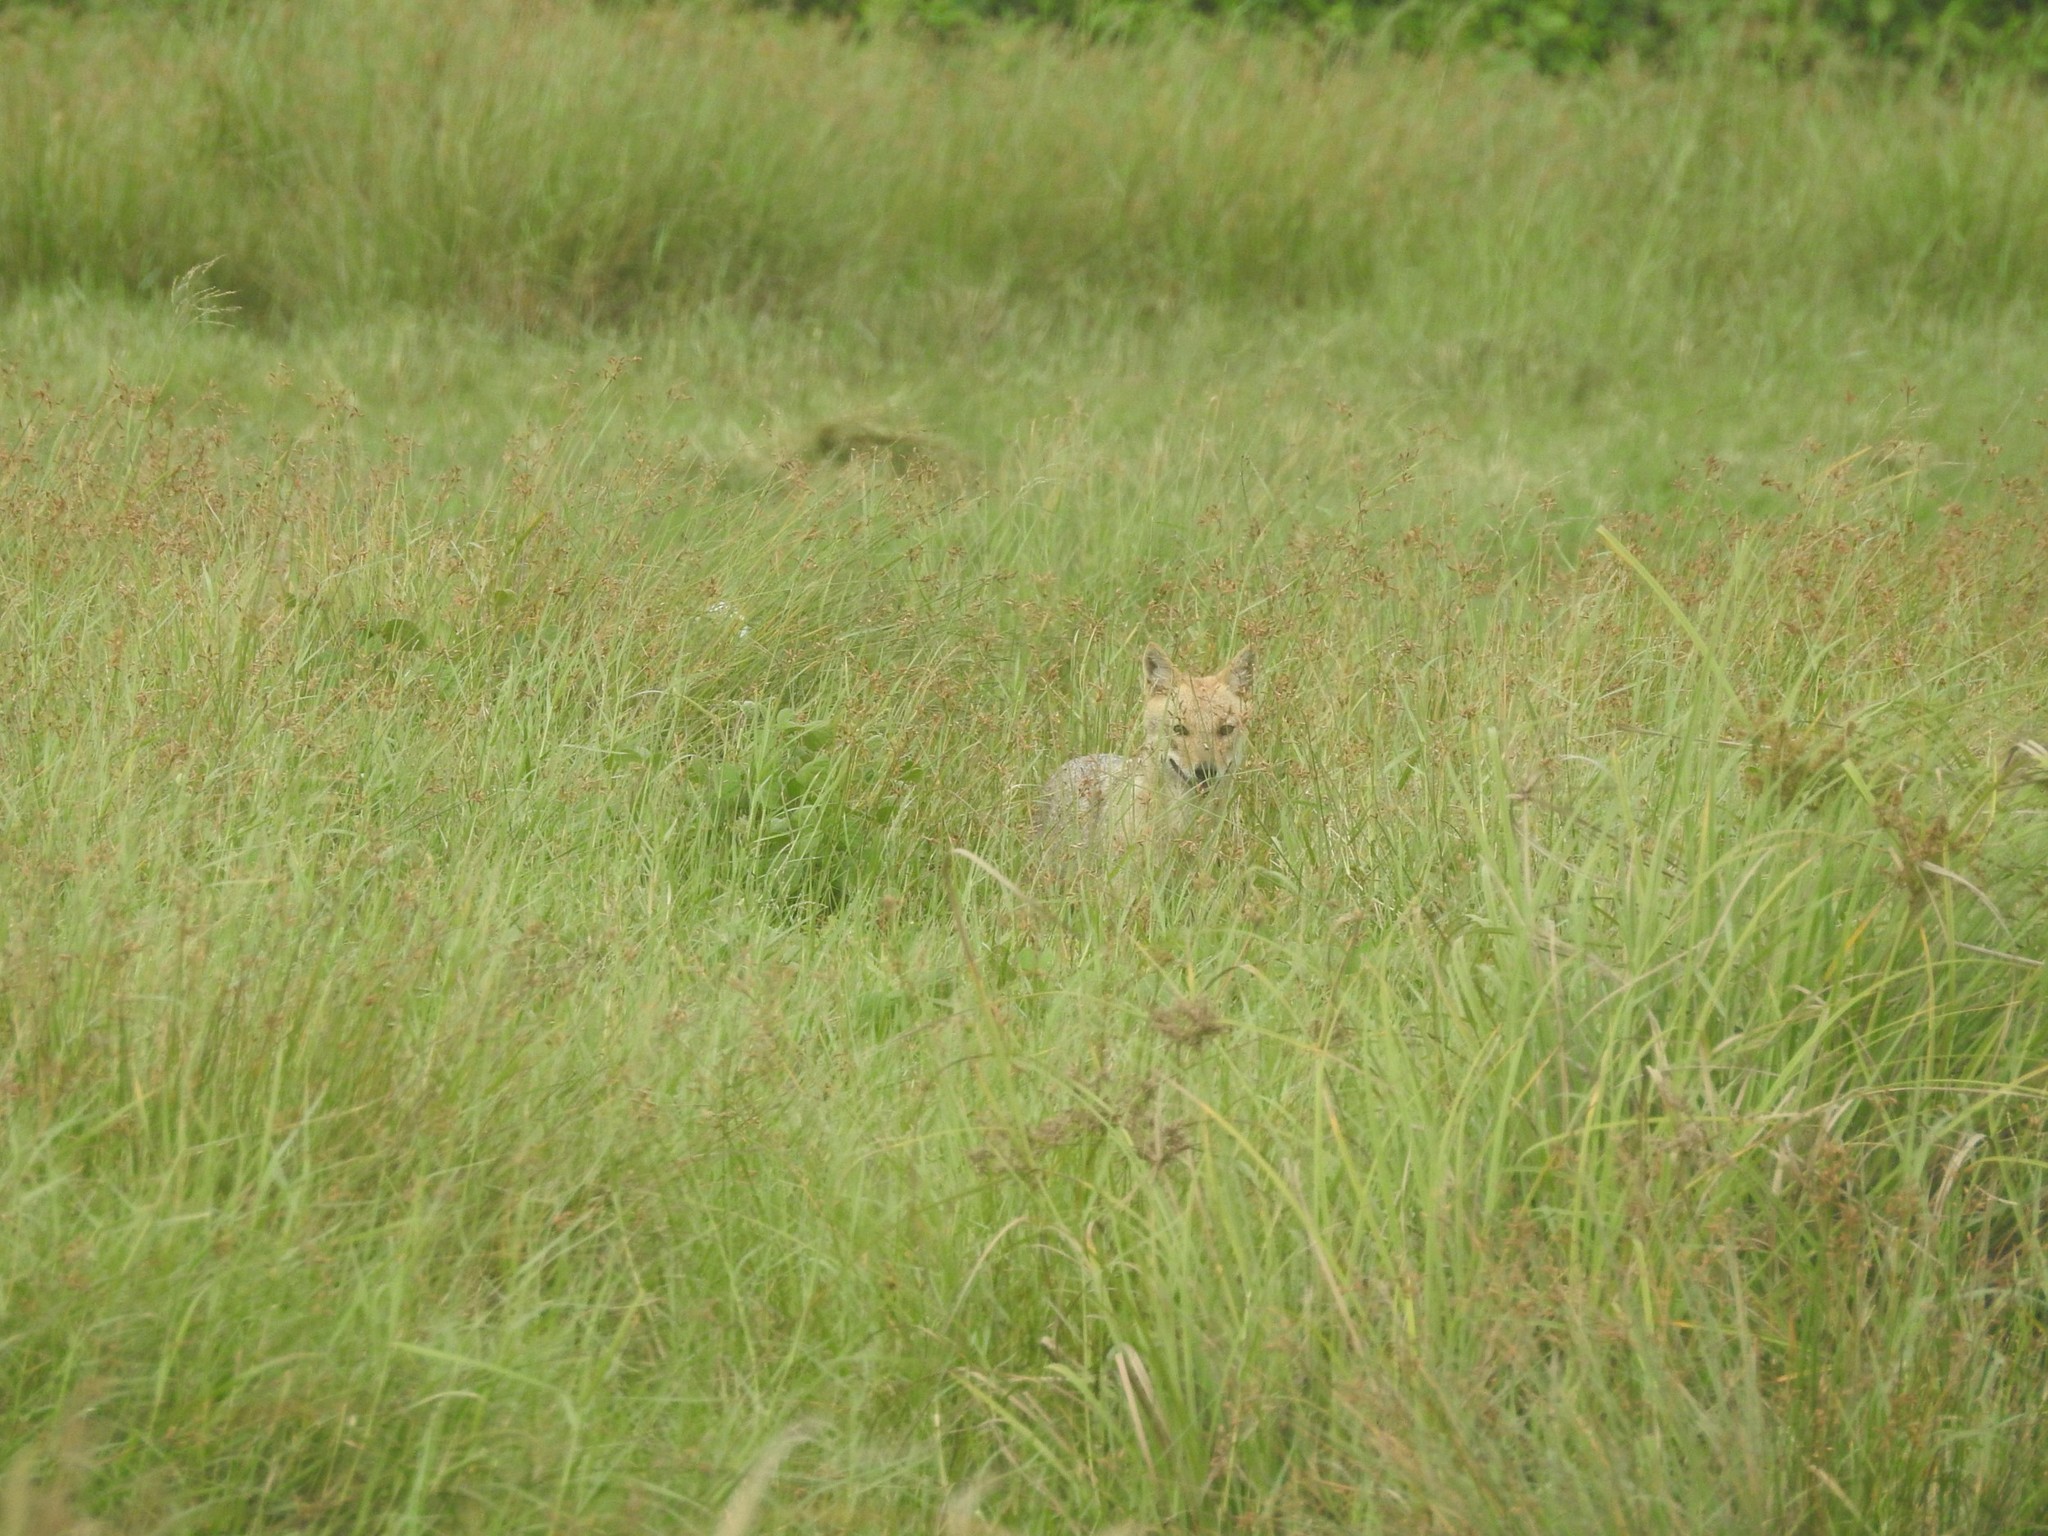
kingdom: Animalia
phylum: Chordata
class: Mammalia
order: Carnivora
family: Canidae
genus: Canis
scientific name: Canis aureus
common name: Golden jackal
